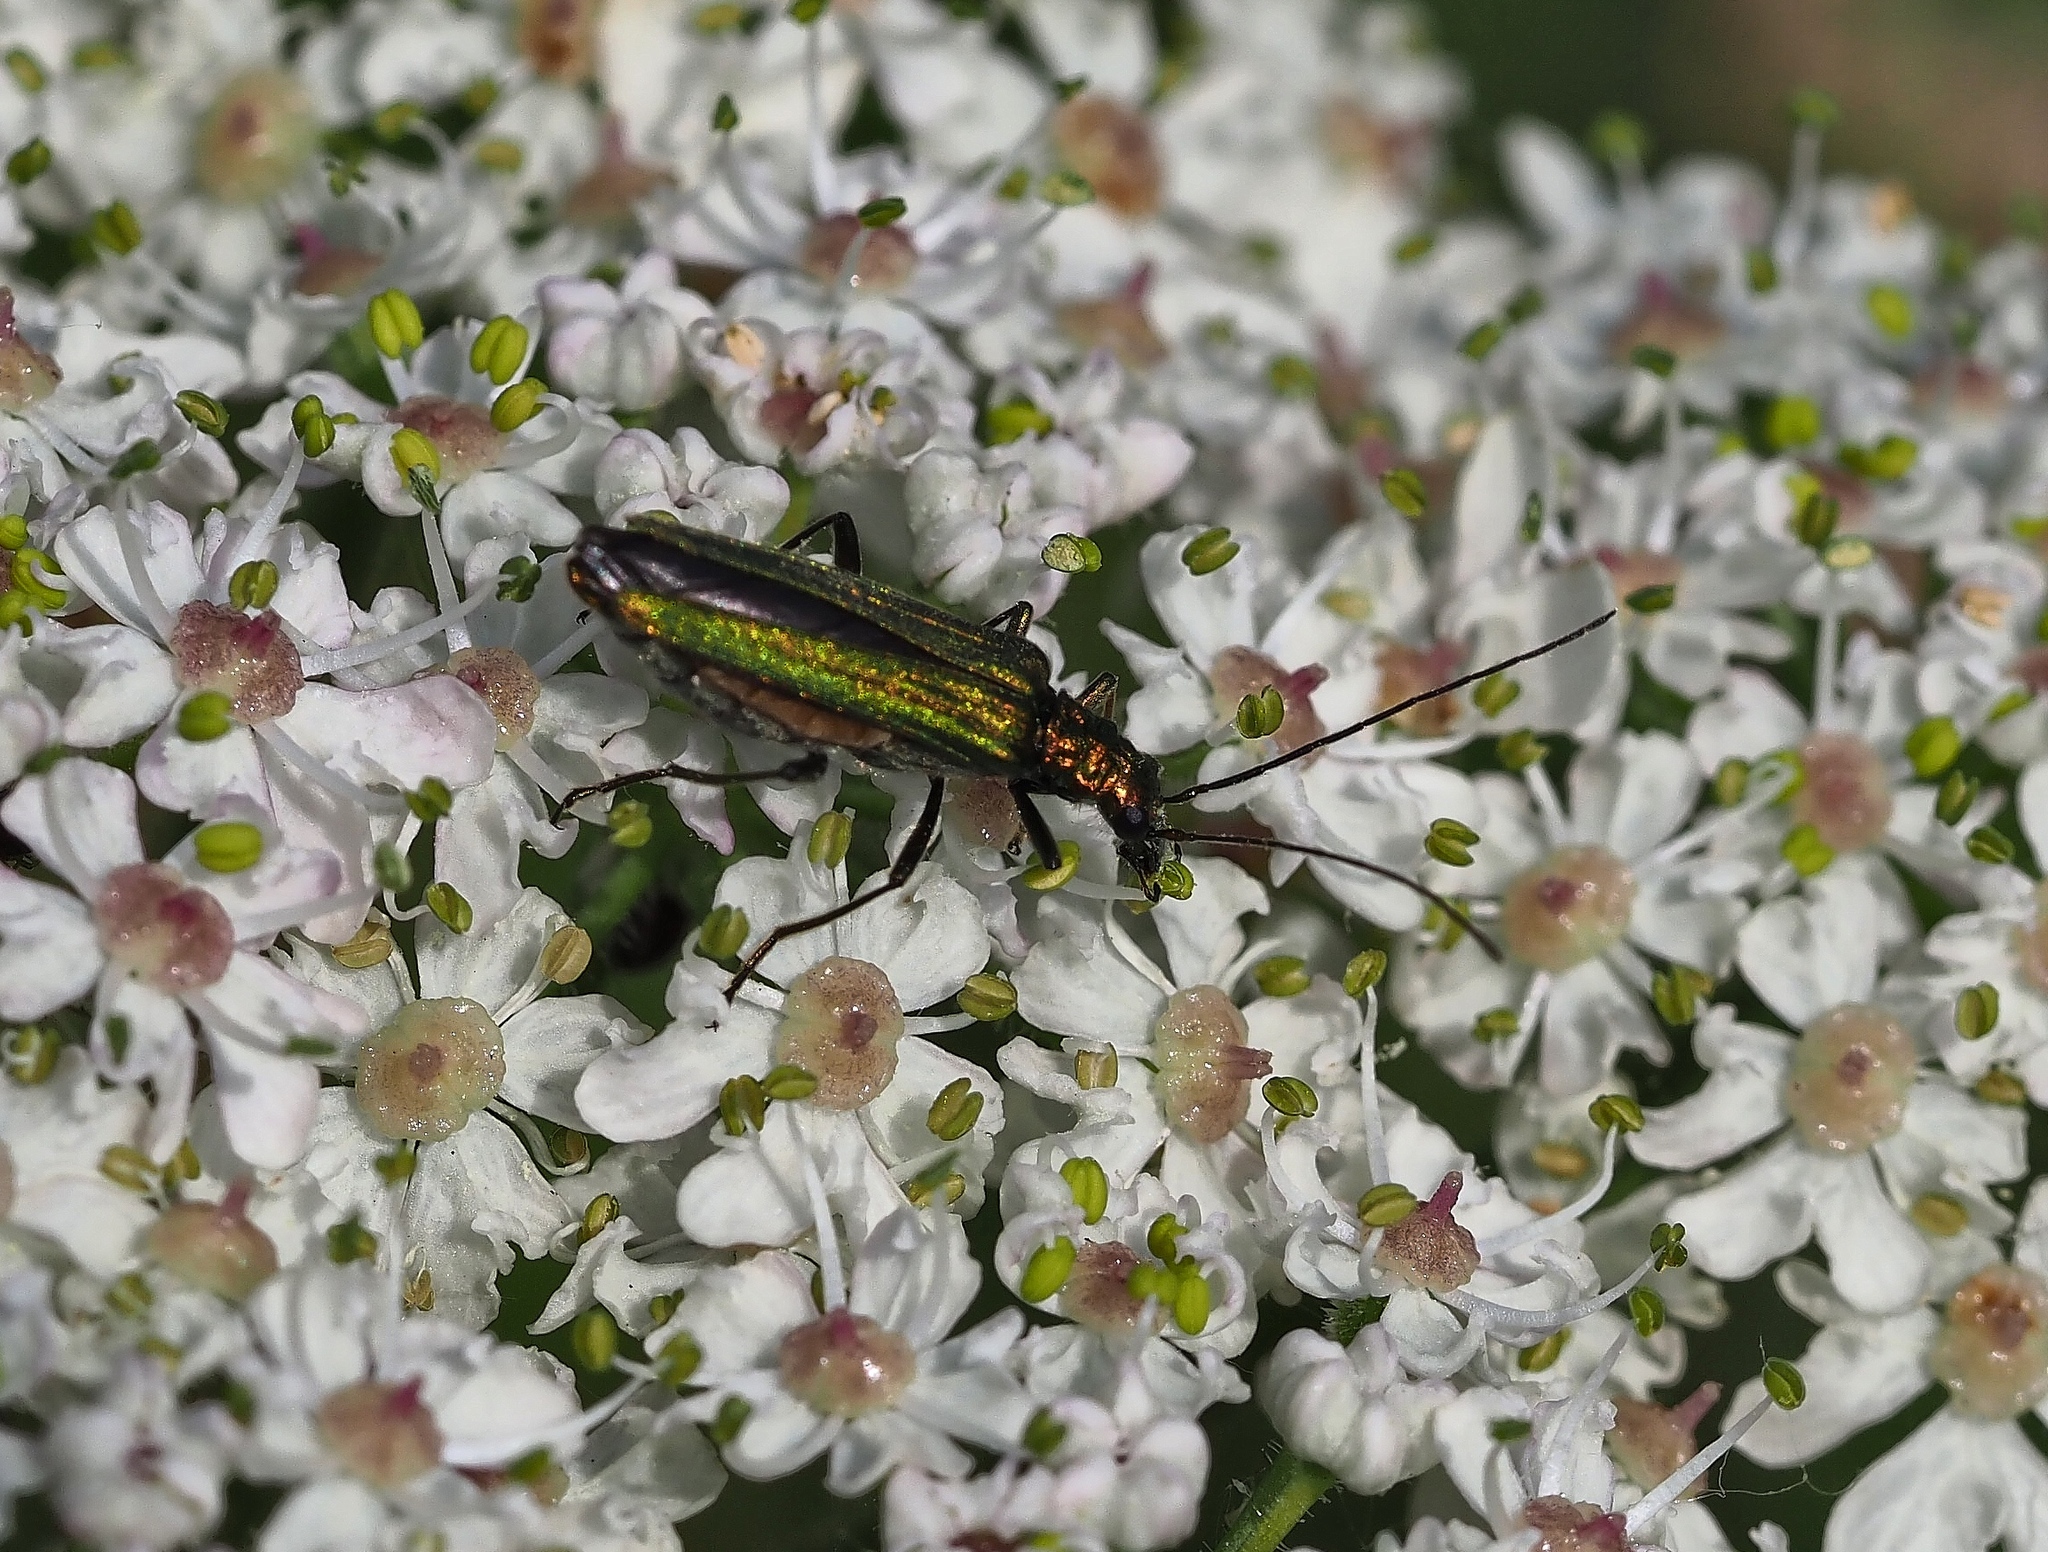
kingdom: Animalia
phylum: Arthropoda
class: Insecta
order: Coleoptera
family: Oedemeridae
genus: Oedemera
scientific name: Oedemera nobilis
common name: Swollen-thighed beetle
